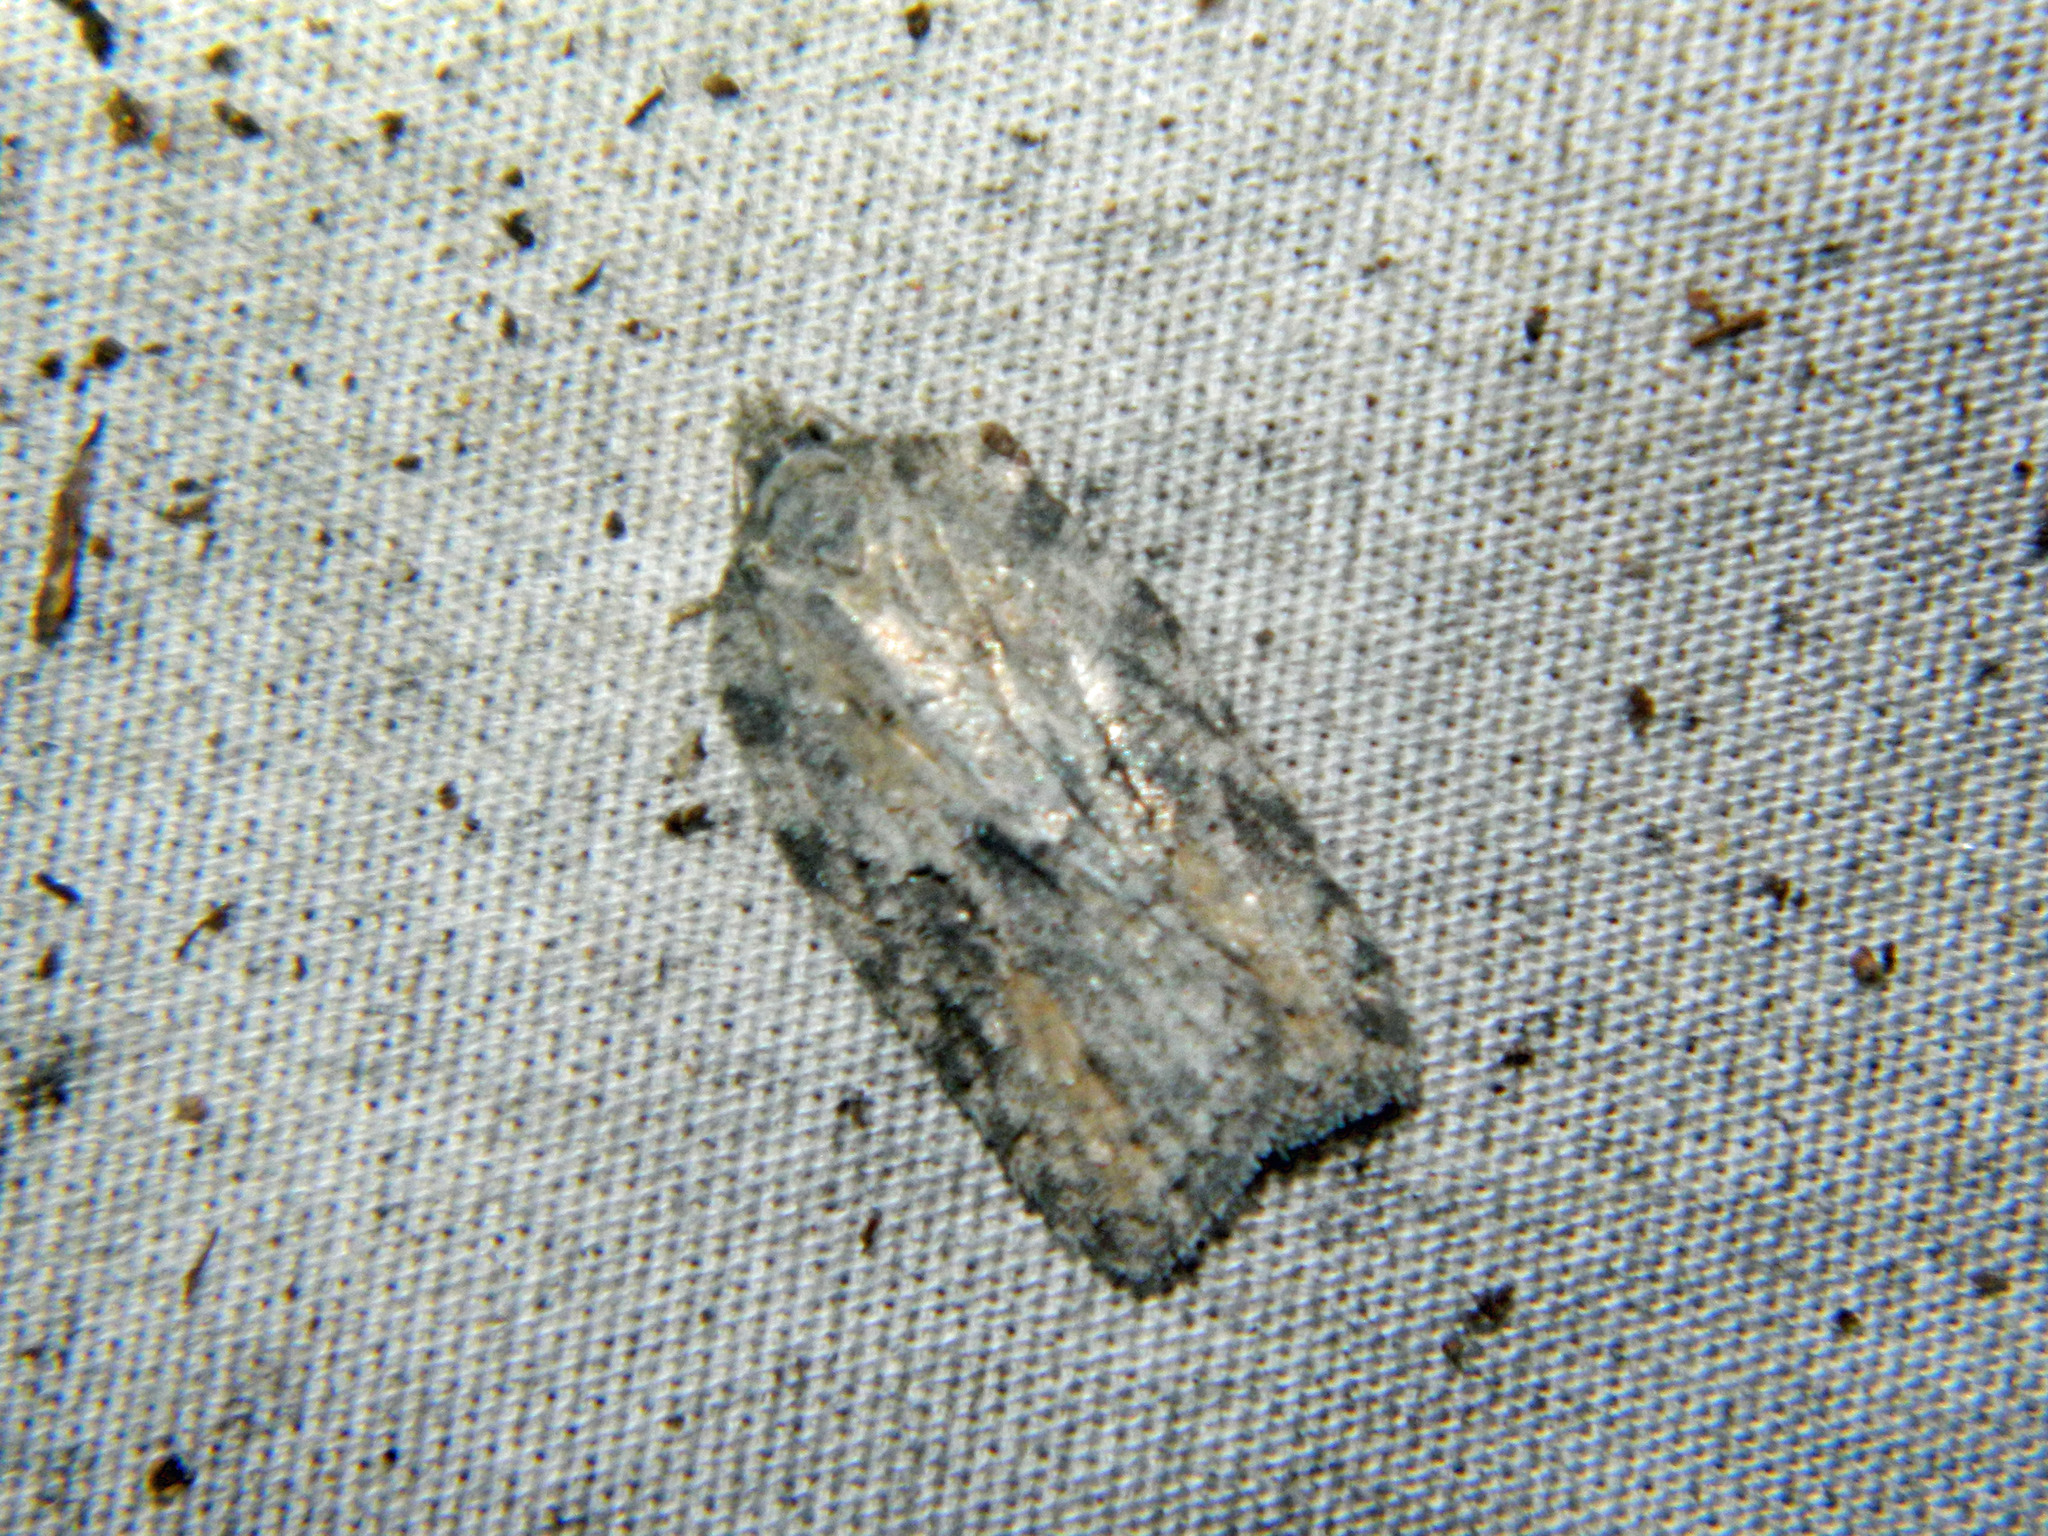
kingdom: Animalia
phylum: Arthropoda
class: Insecta
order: Lepidoptera
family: Tortricidae
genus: Acleris
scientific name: Acleris nigrolinea
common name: Black-lined acleris
